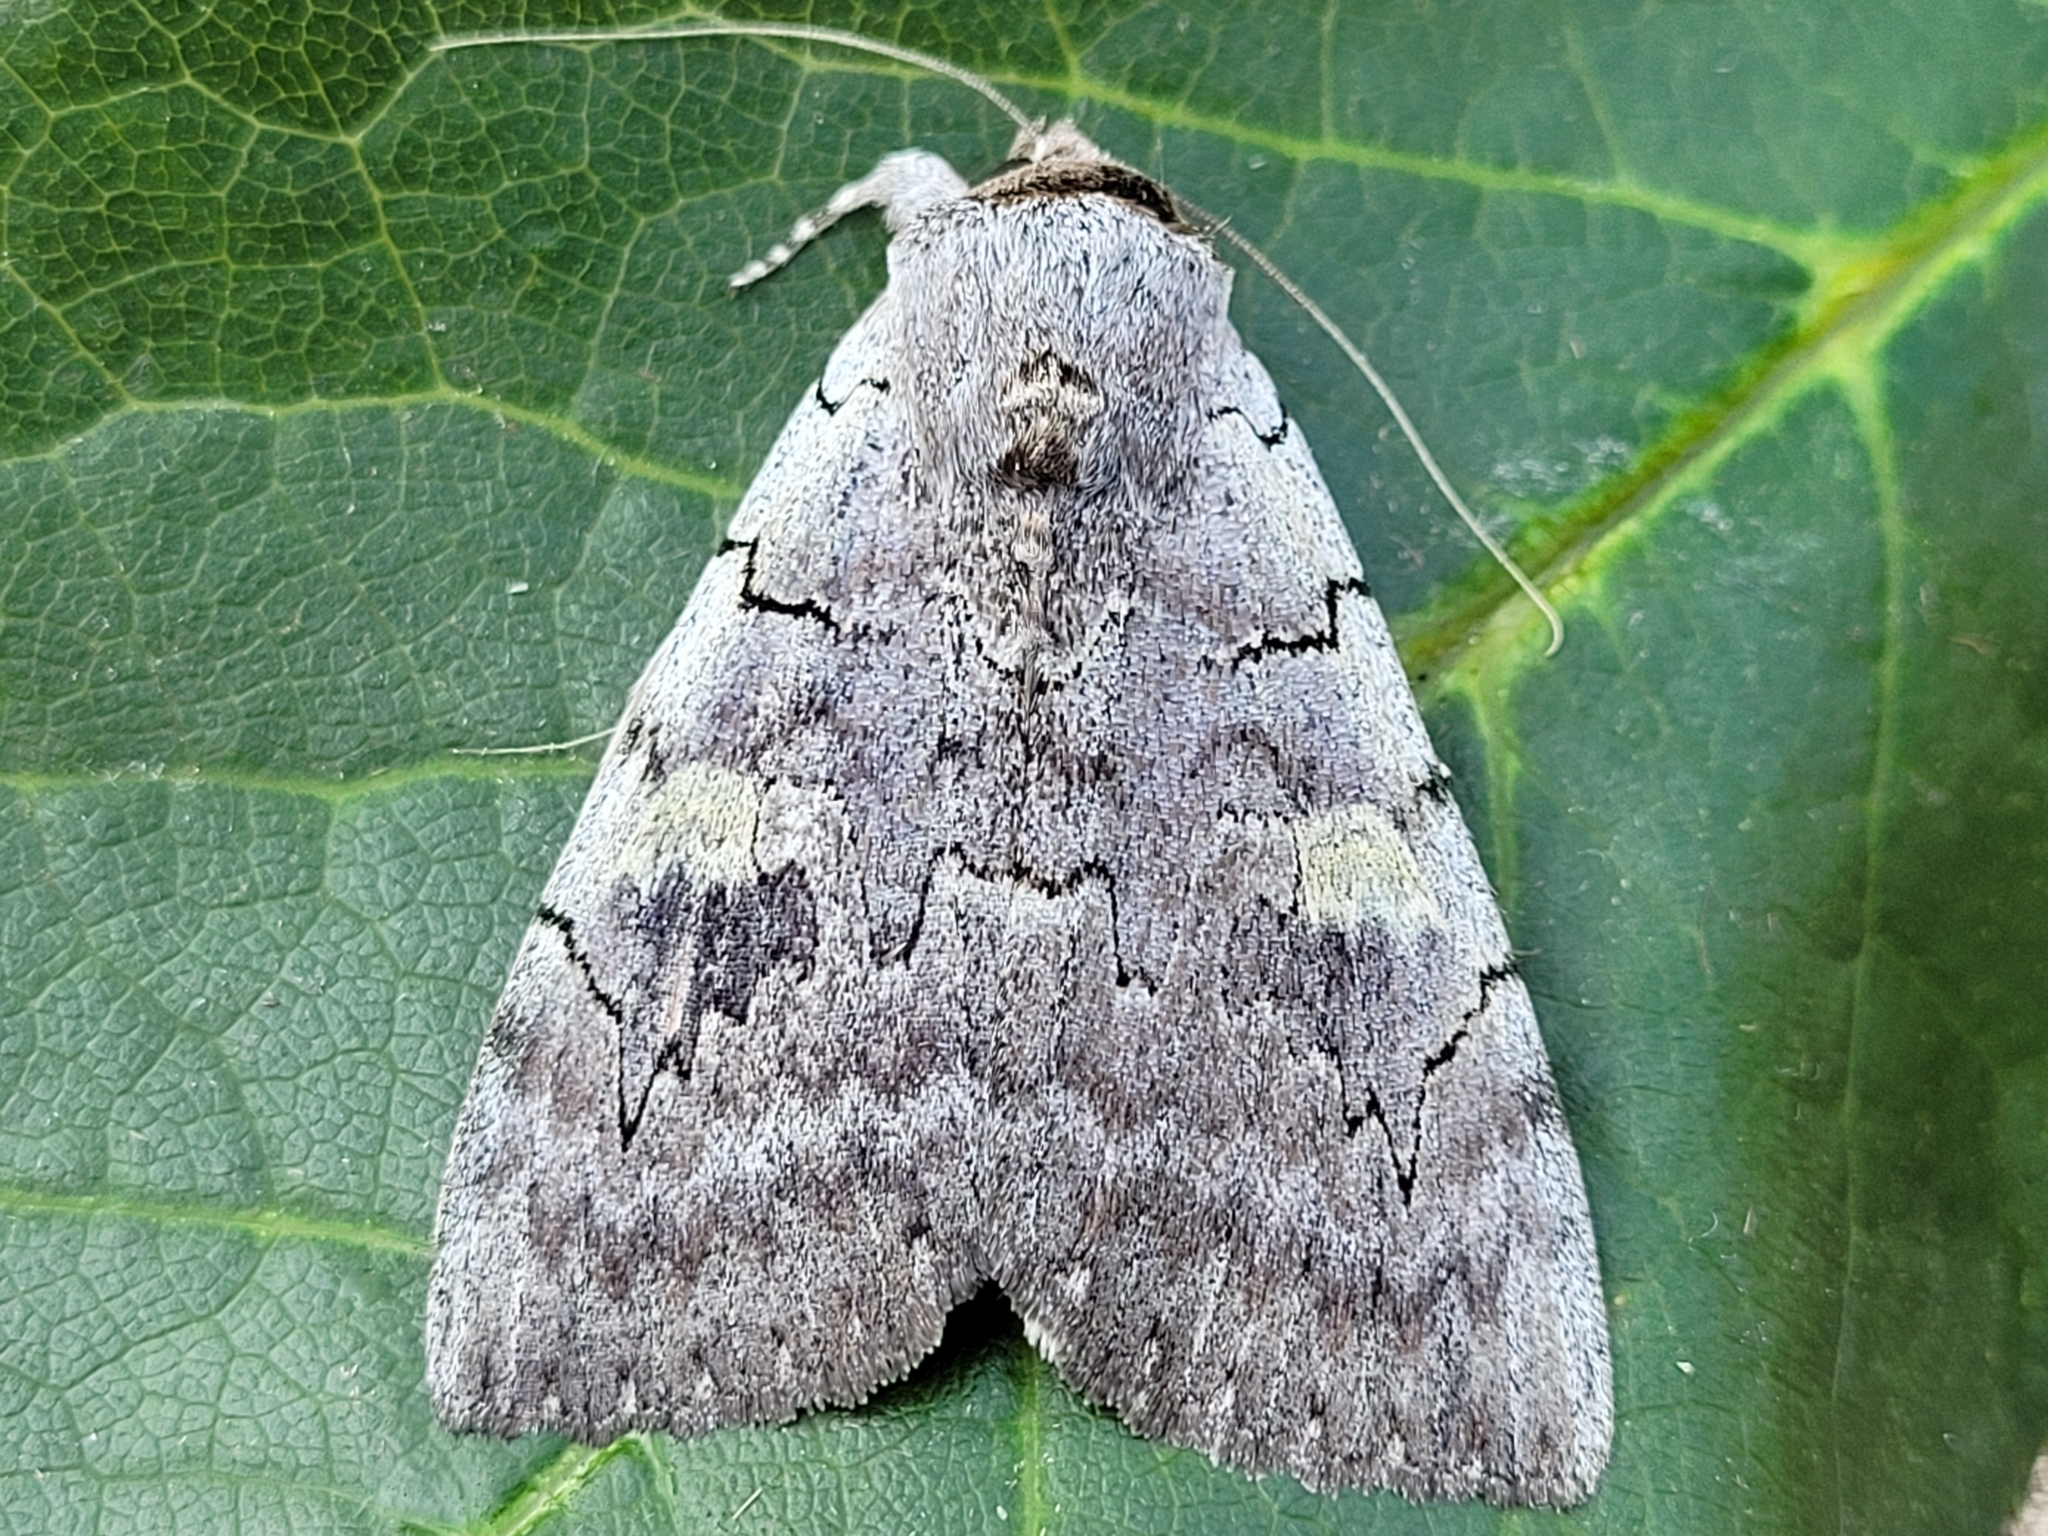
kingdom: Animalia
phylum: Arthropoda
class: Insecta
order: Lepidoptera
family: Erebidae
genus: Catocala
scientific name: Catocala concumbens
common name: Pink underwing
